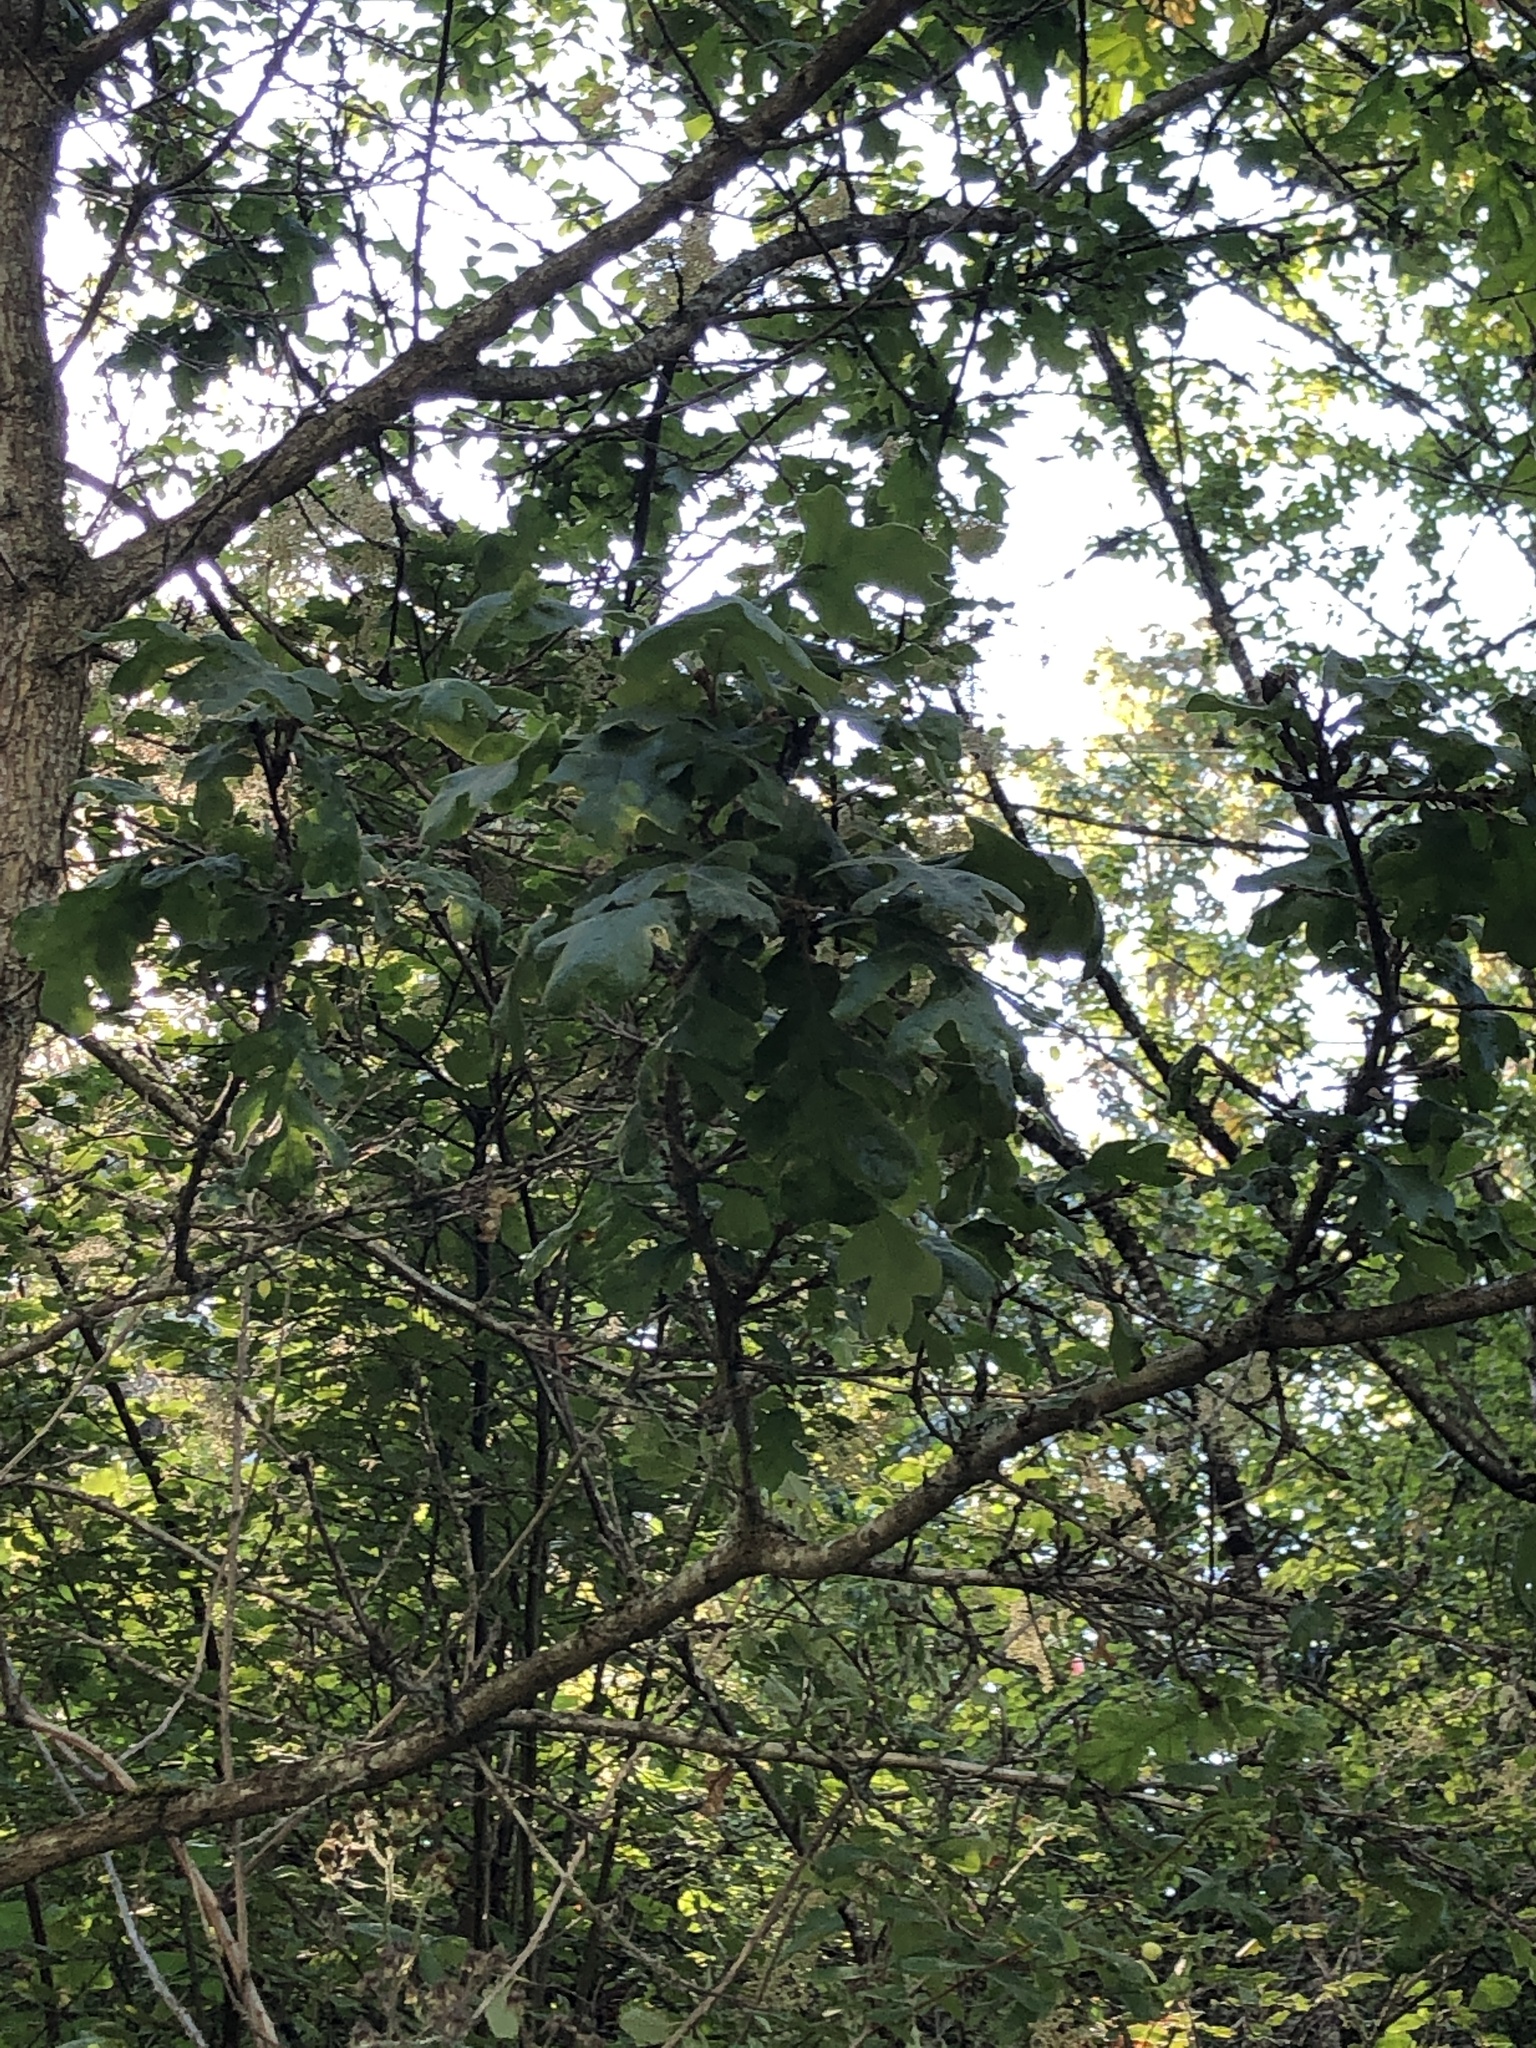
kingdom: Plantae
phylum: Tracheophyta
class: Magnoliopsida
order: Fagales
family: Fagaceae
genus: Quercus
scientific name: Quercus garryana
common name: Garry oak
